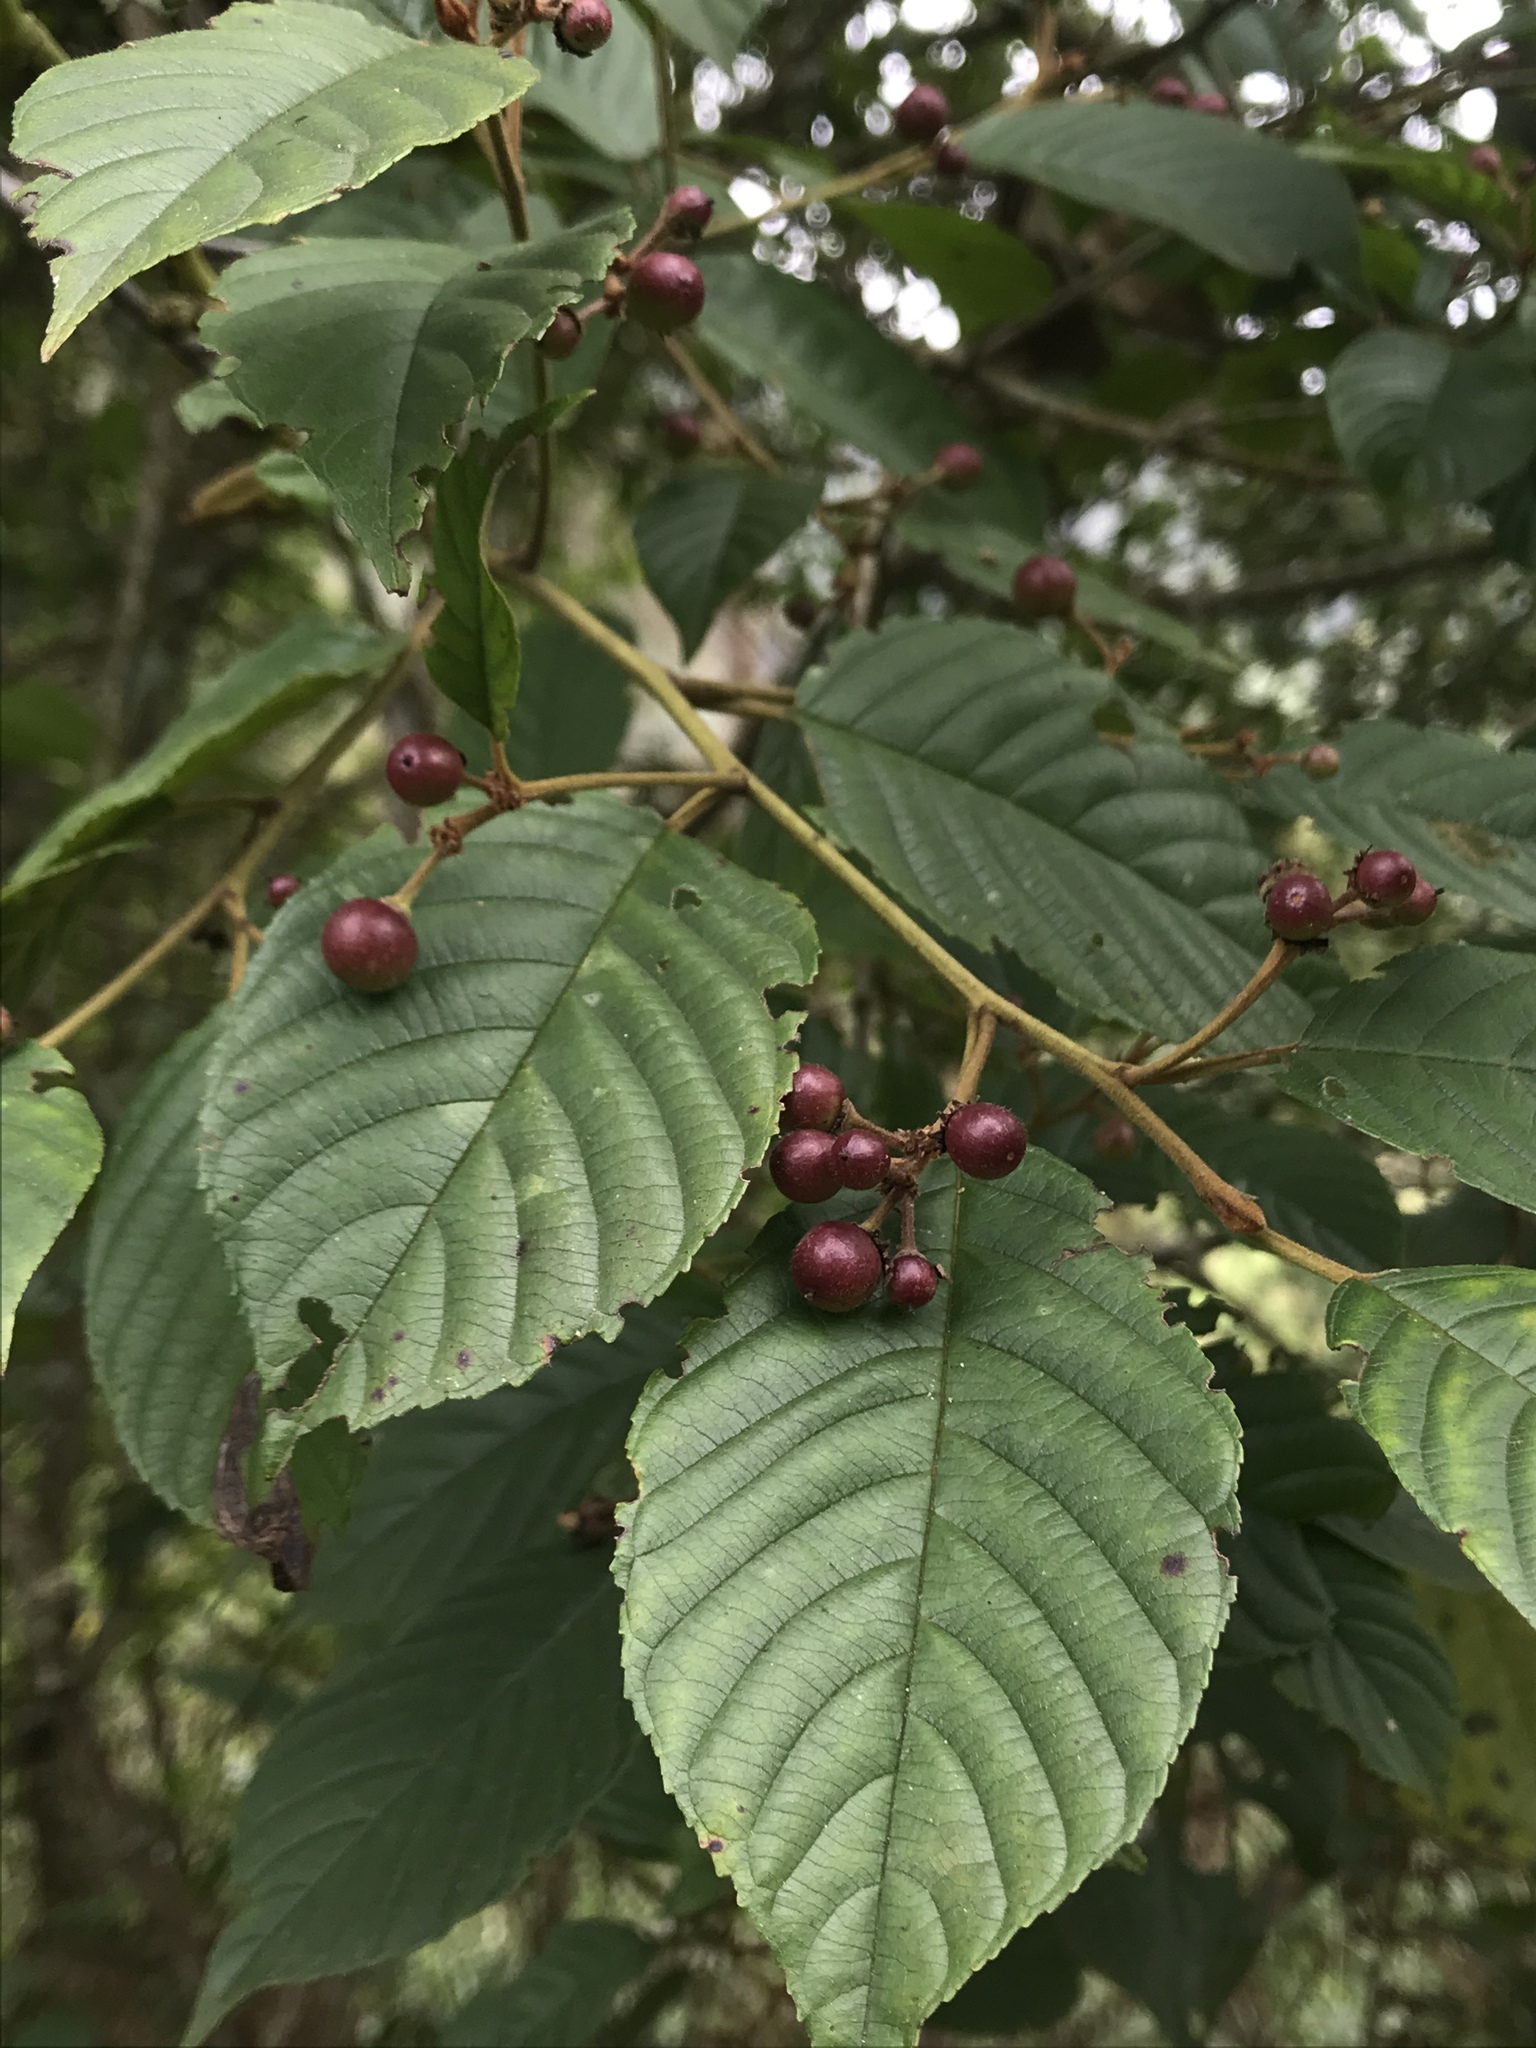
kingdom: Plantae
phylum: Tracheophyta
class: Magnoliopsida
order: Rosales
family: Rhamnaceae
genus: Frangula
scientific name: Frangula sphaerosperma
